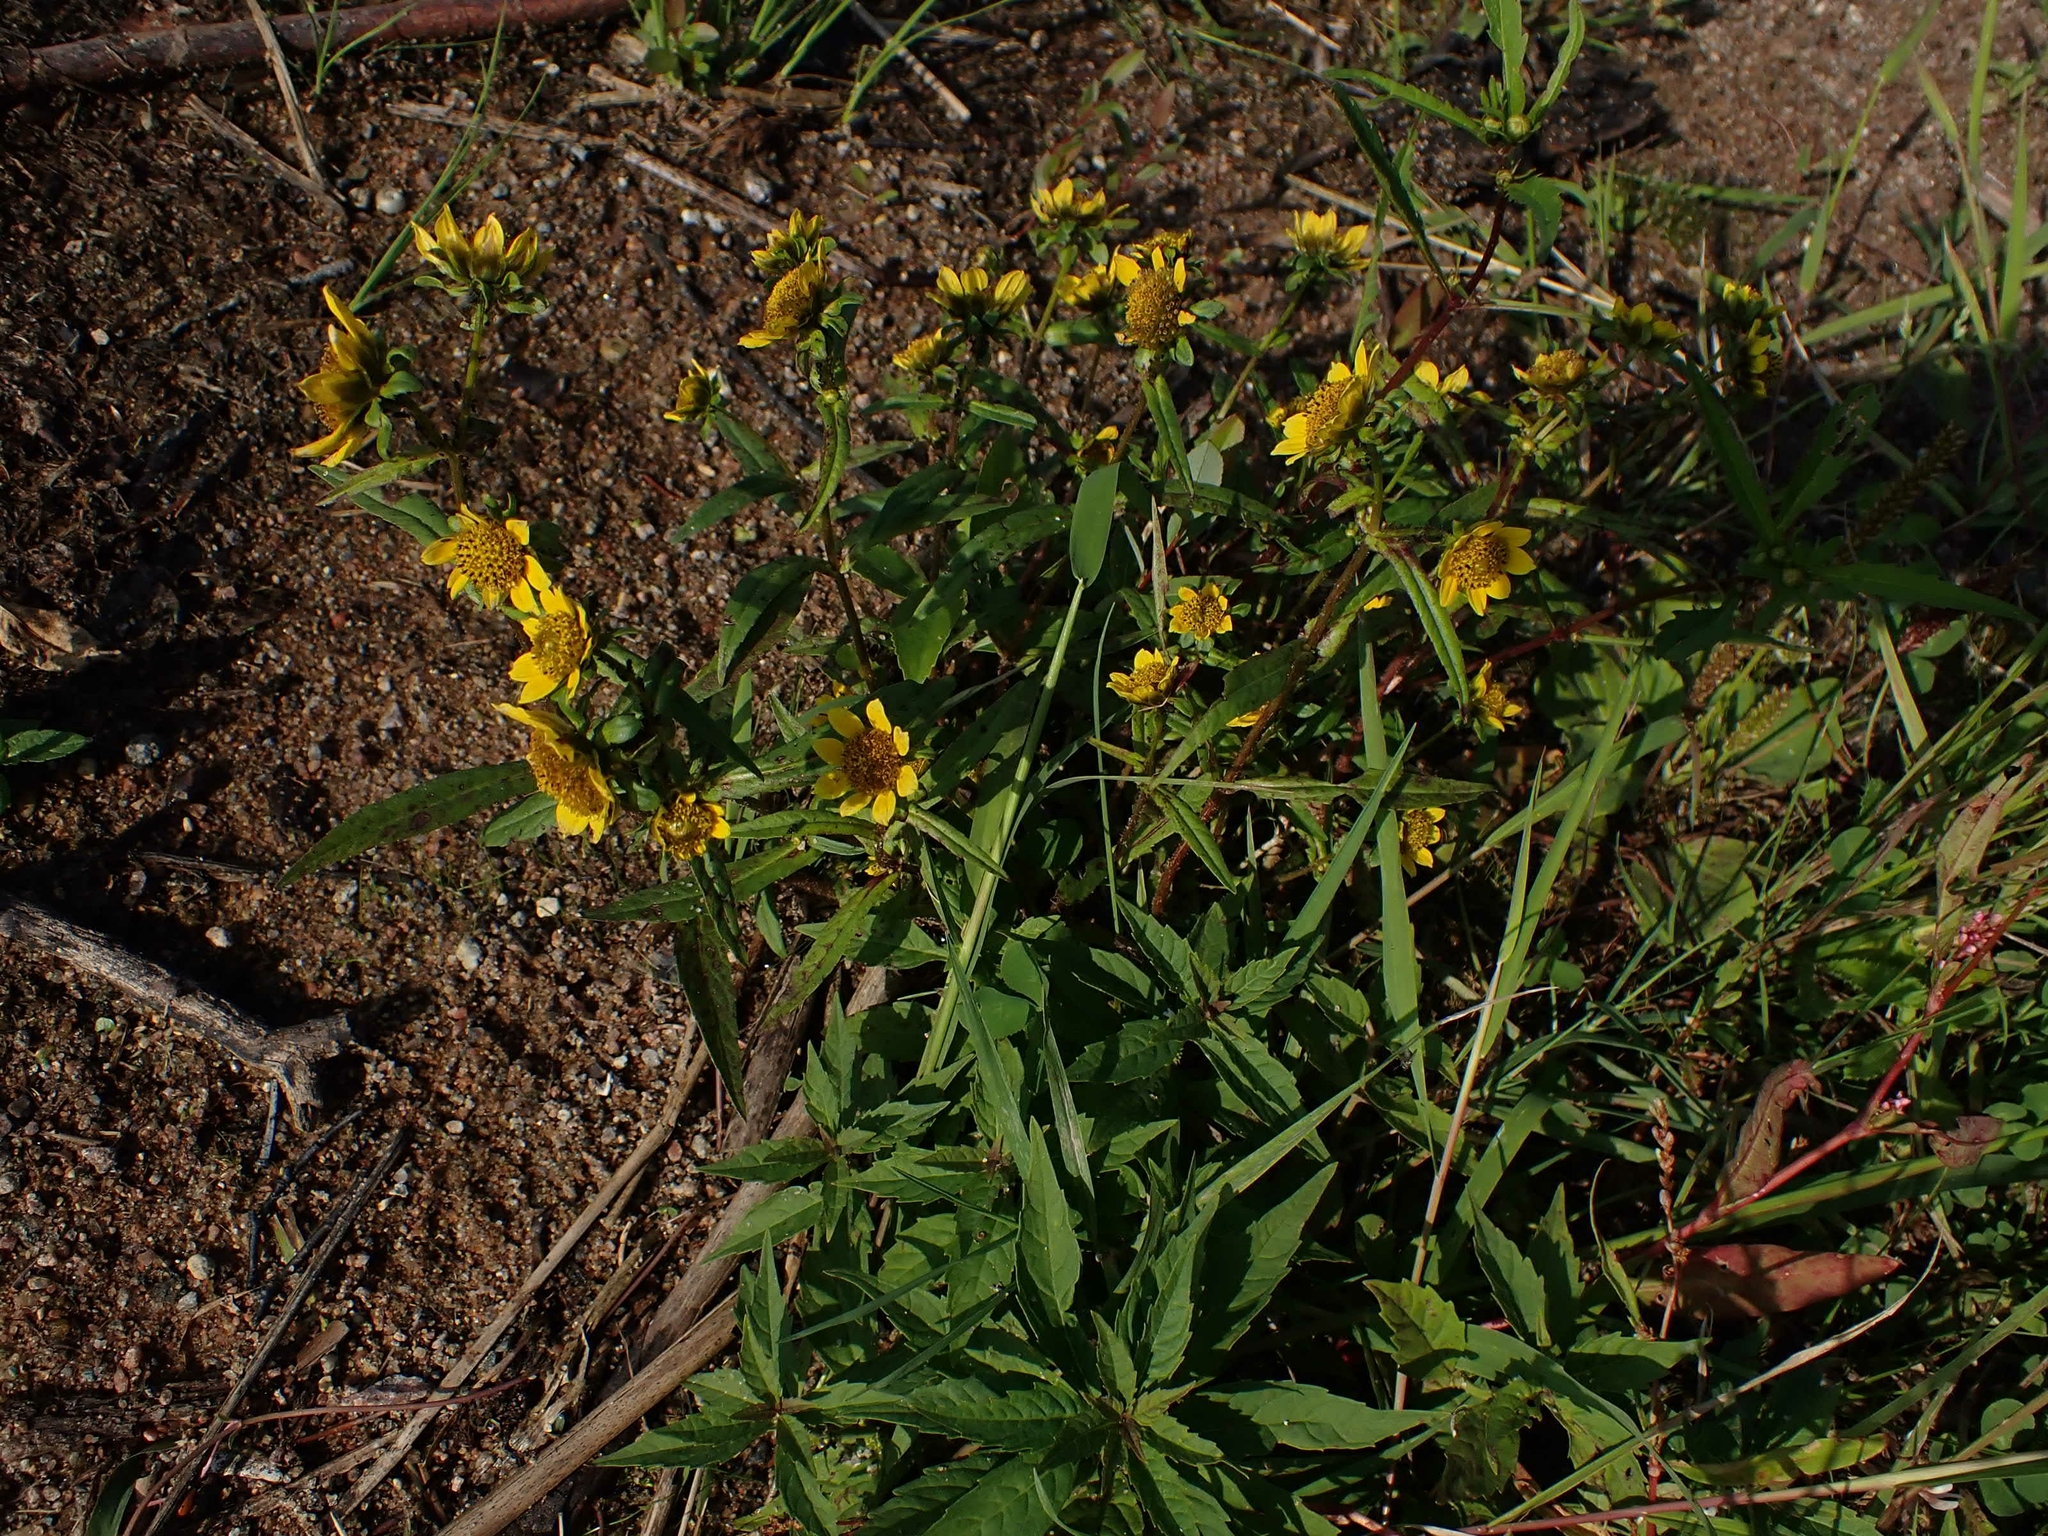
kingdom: Plantae
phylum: Tracheophyta
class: Magnoliopsida
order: Asterales
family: Asteraceae
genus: Bidens
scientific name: Bidens cernua
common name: Nodding bur-marigold
